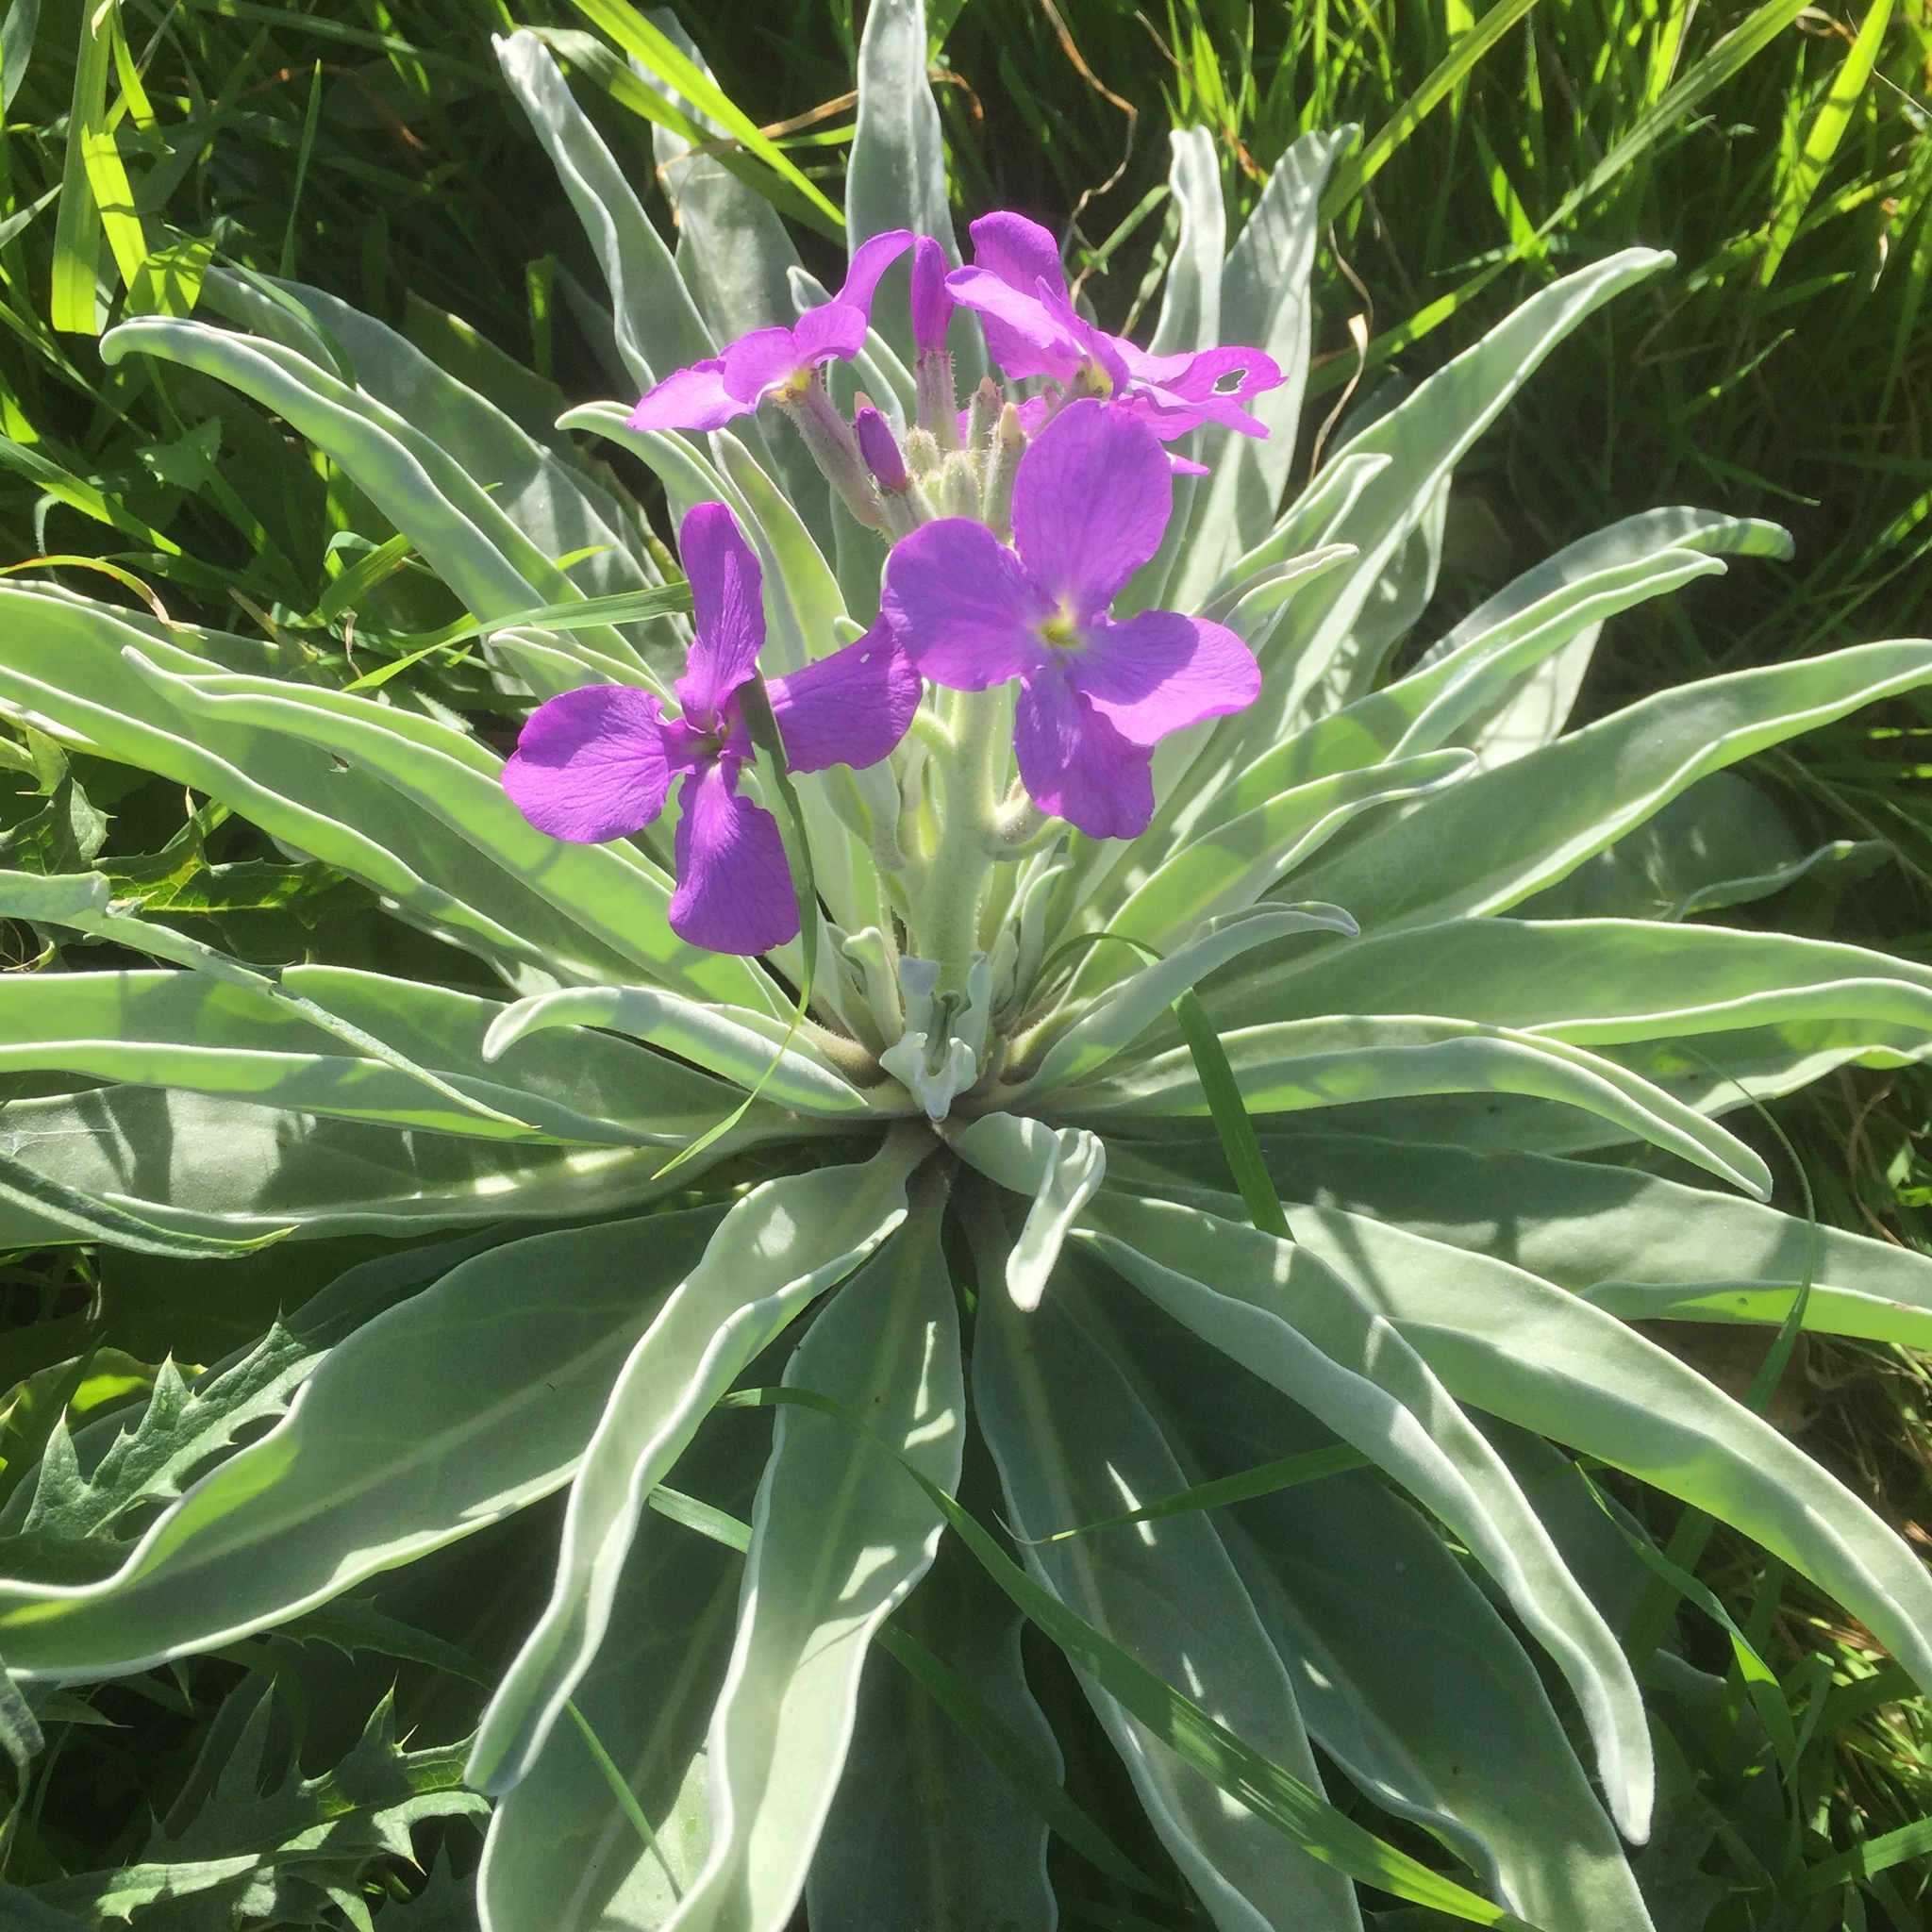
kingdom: Plantae
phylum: Tracheophyta
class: Magnoliopsida
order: Brassicales
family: Brassicaceae
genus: Matthiola
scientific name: Matthiola maderensis
